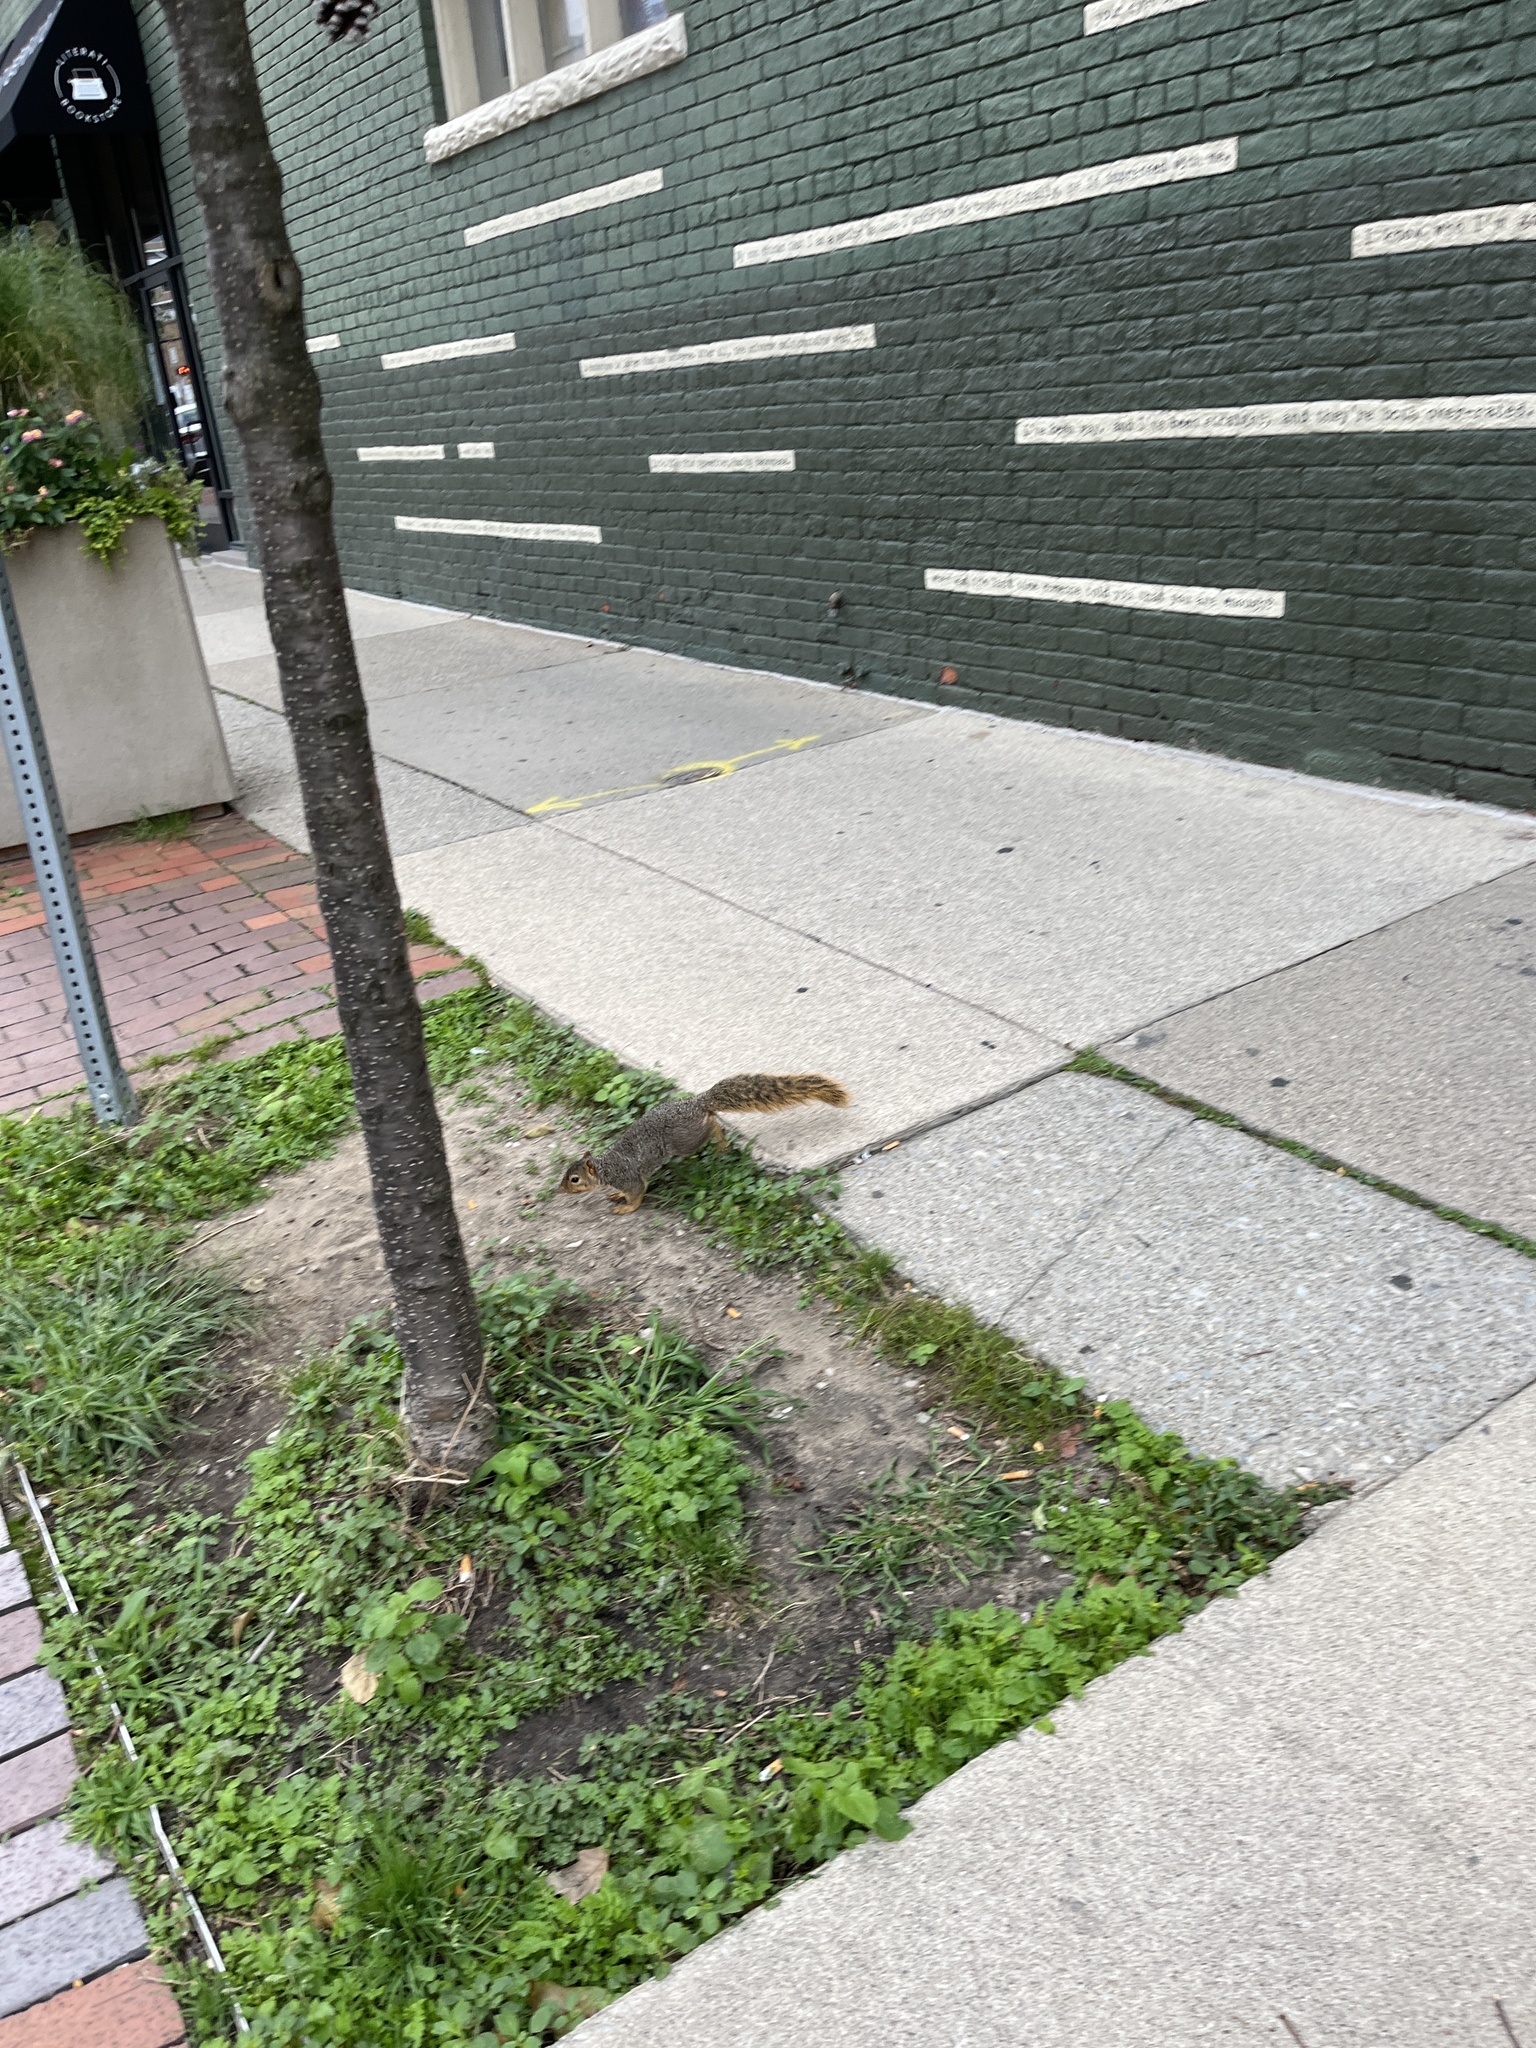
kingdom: Animalia
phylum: Chordata
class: Mammalia
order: Rodentia
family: Sciuridae
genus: Sciurus
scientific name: Sciurus niger
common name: Fox squirrel
